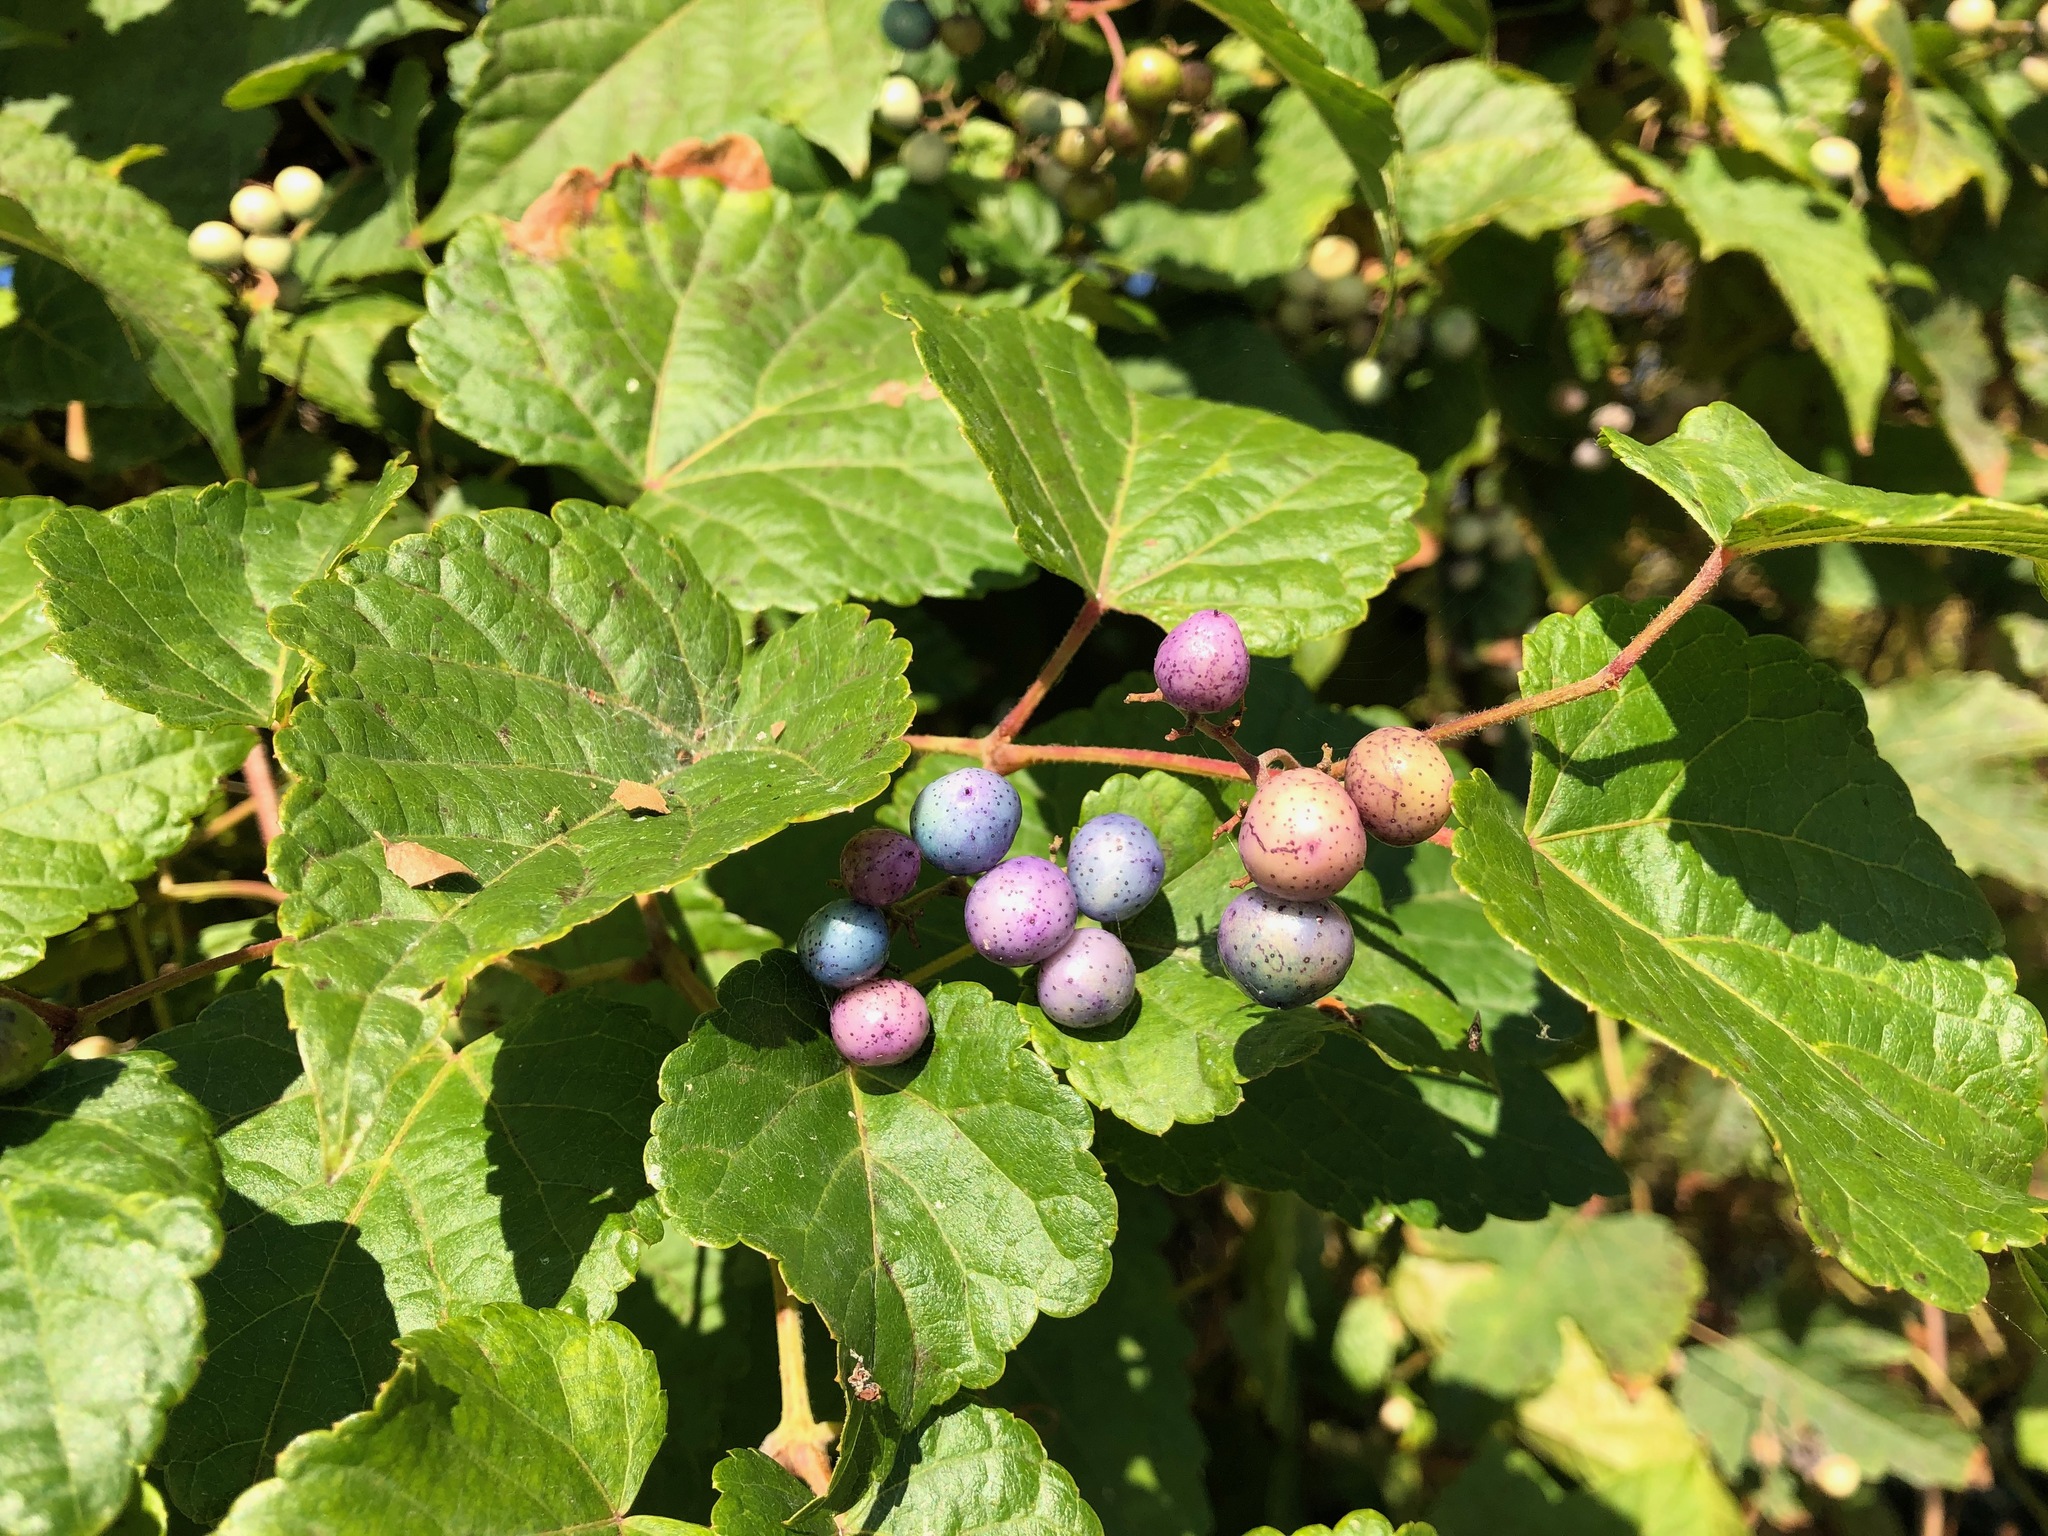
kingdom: Plantae
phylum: Tracheophyta
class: Magnoliopsida
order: Vitales
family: Vitaceae
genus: Ampelopsis
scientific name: Ampelopsis glandulosa
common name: Amur peppervine
